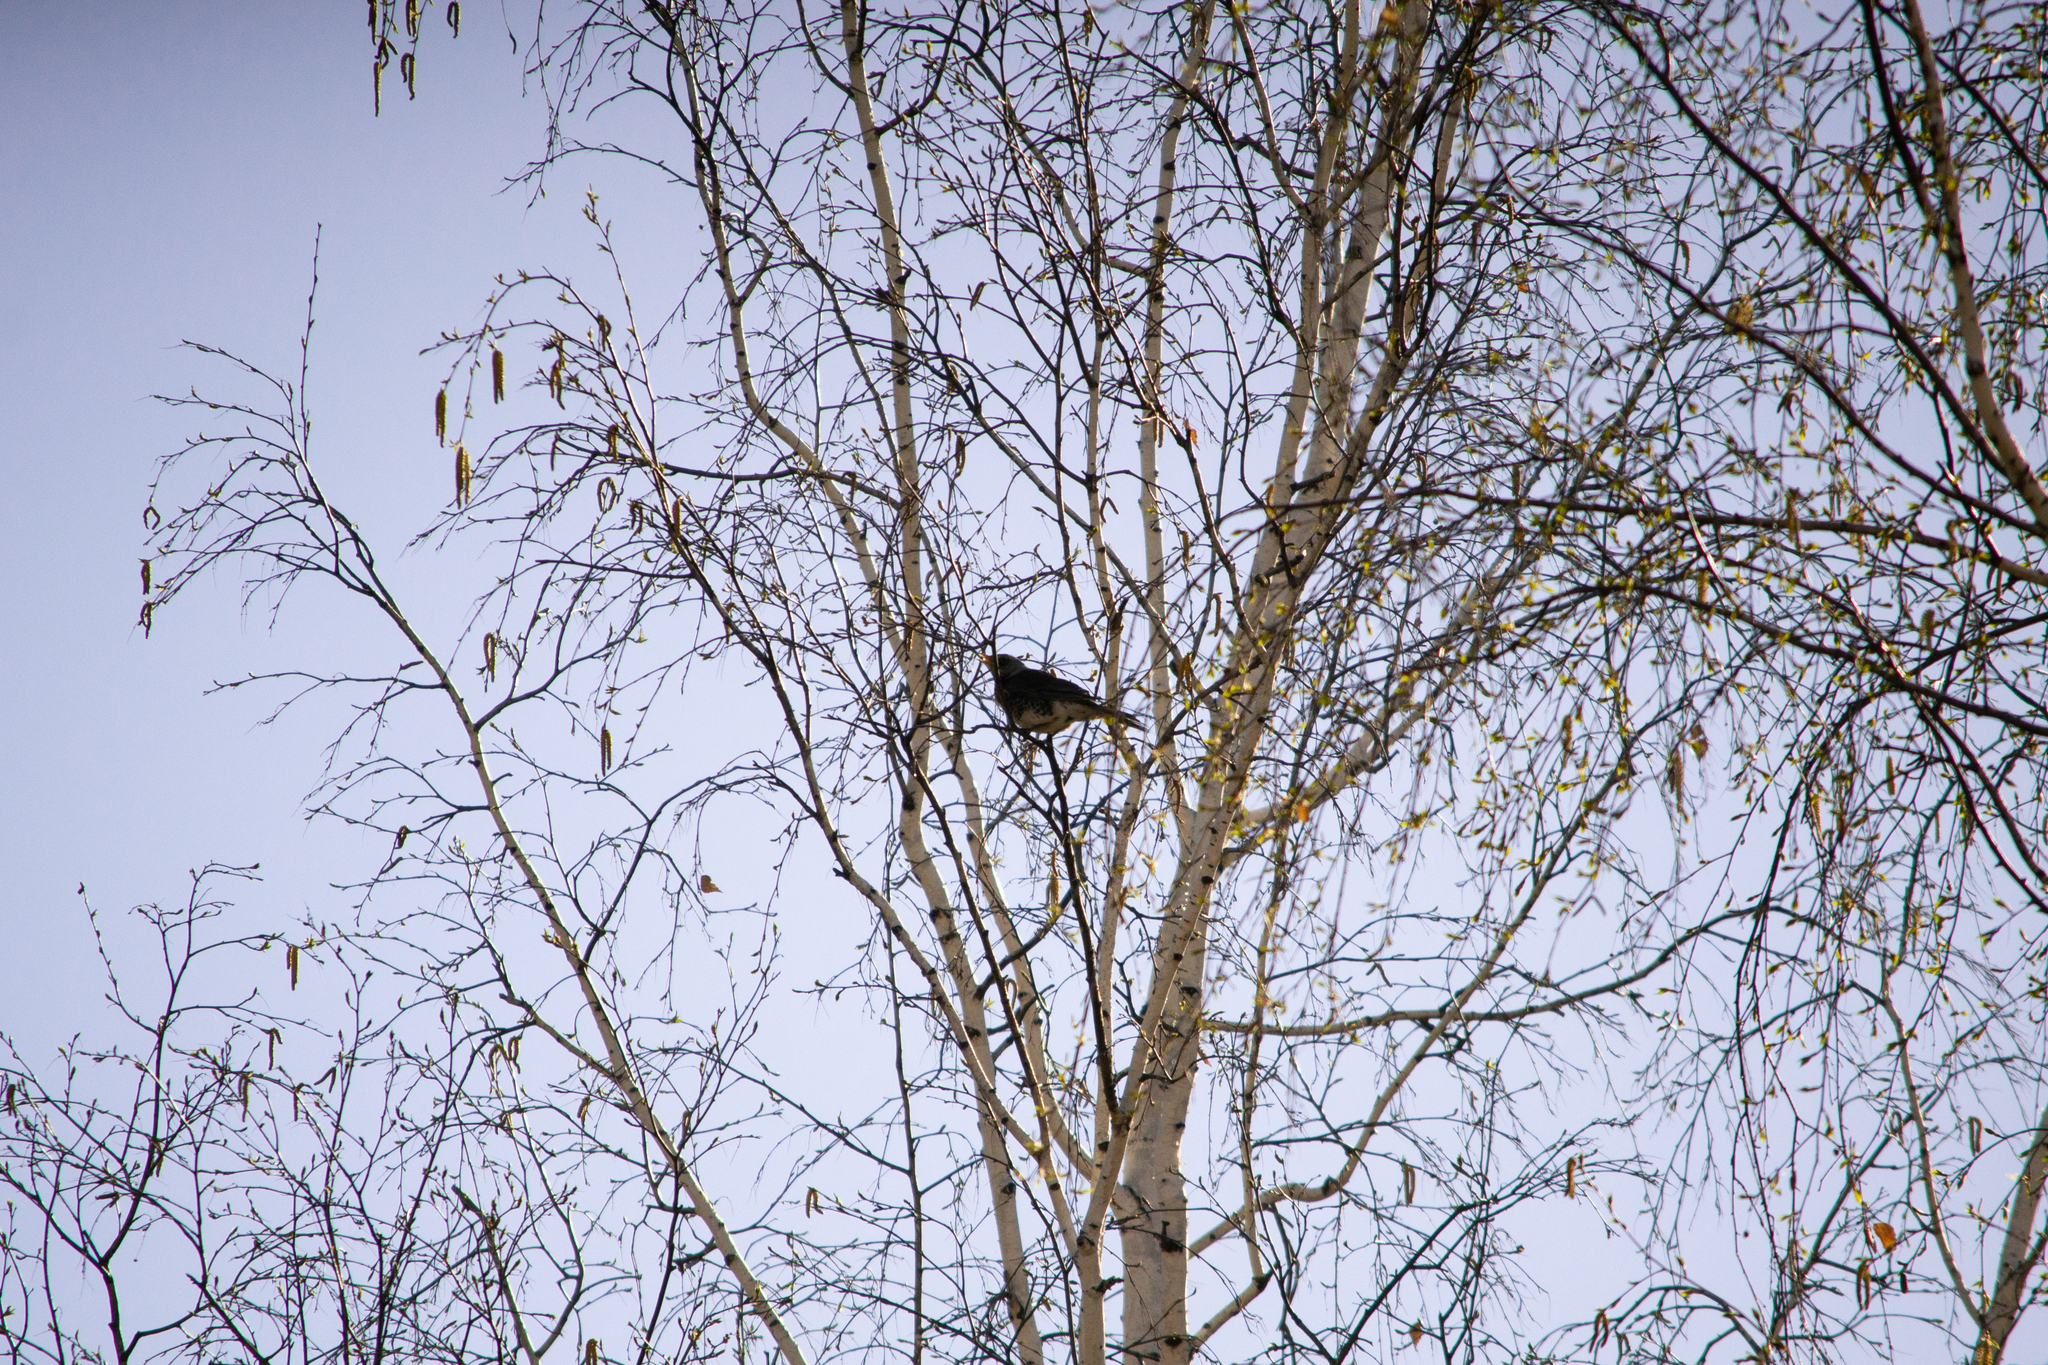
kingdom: Animalia
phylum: Chordata
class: Aves
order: Passeriformes
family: Turdidae
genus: Turdus
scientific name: Turdus pilaris
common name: Fieldfare
